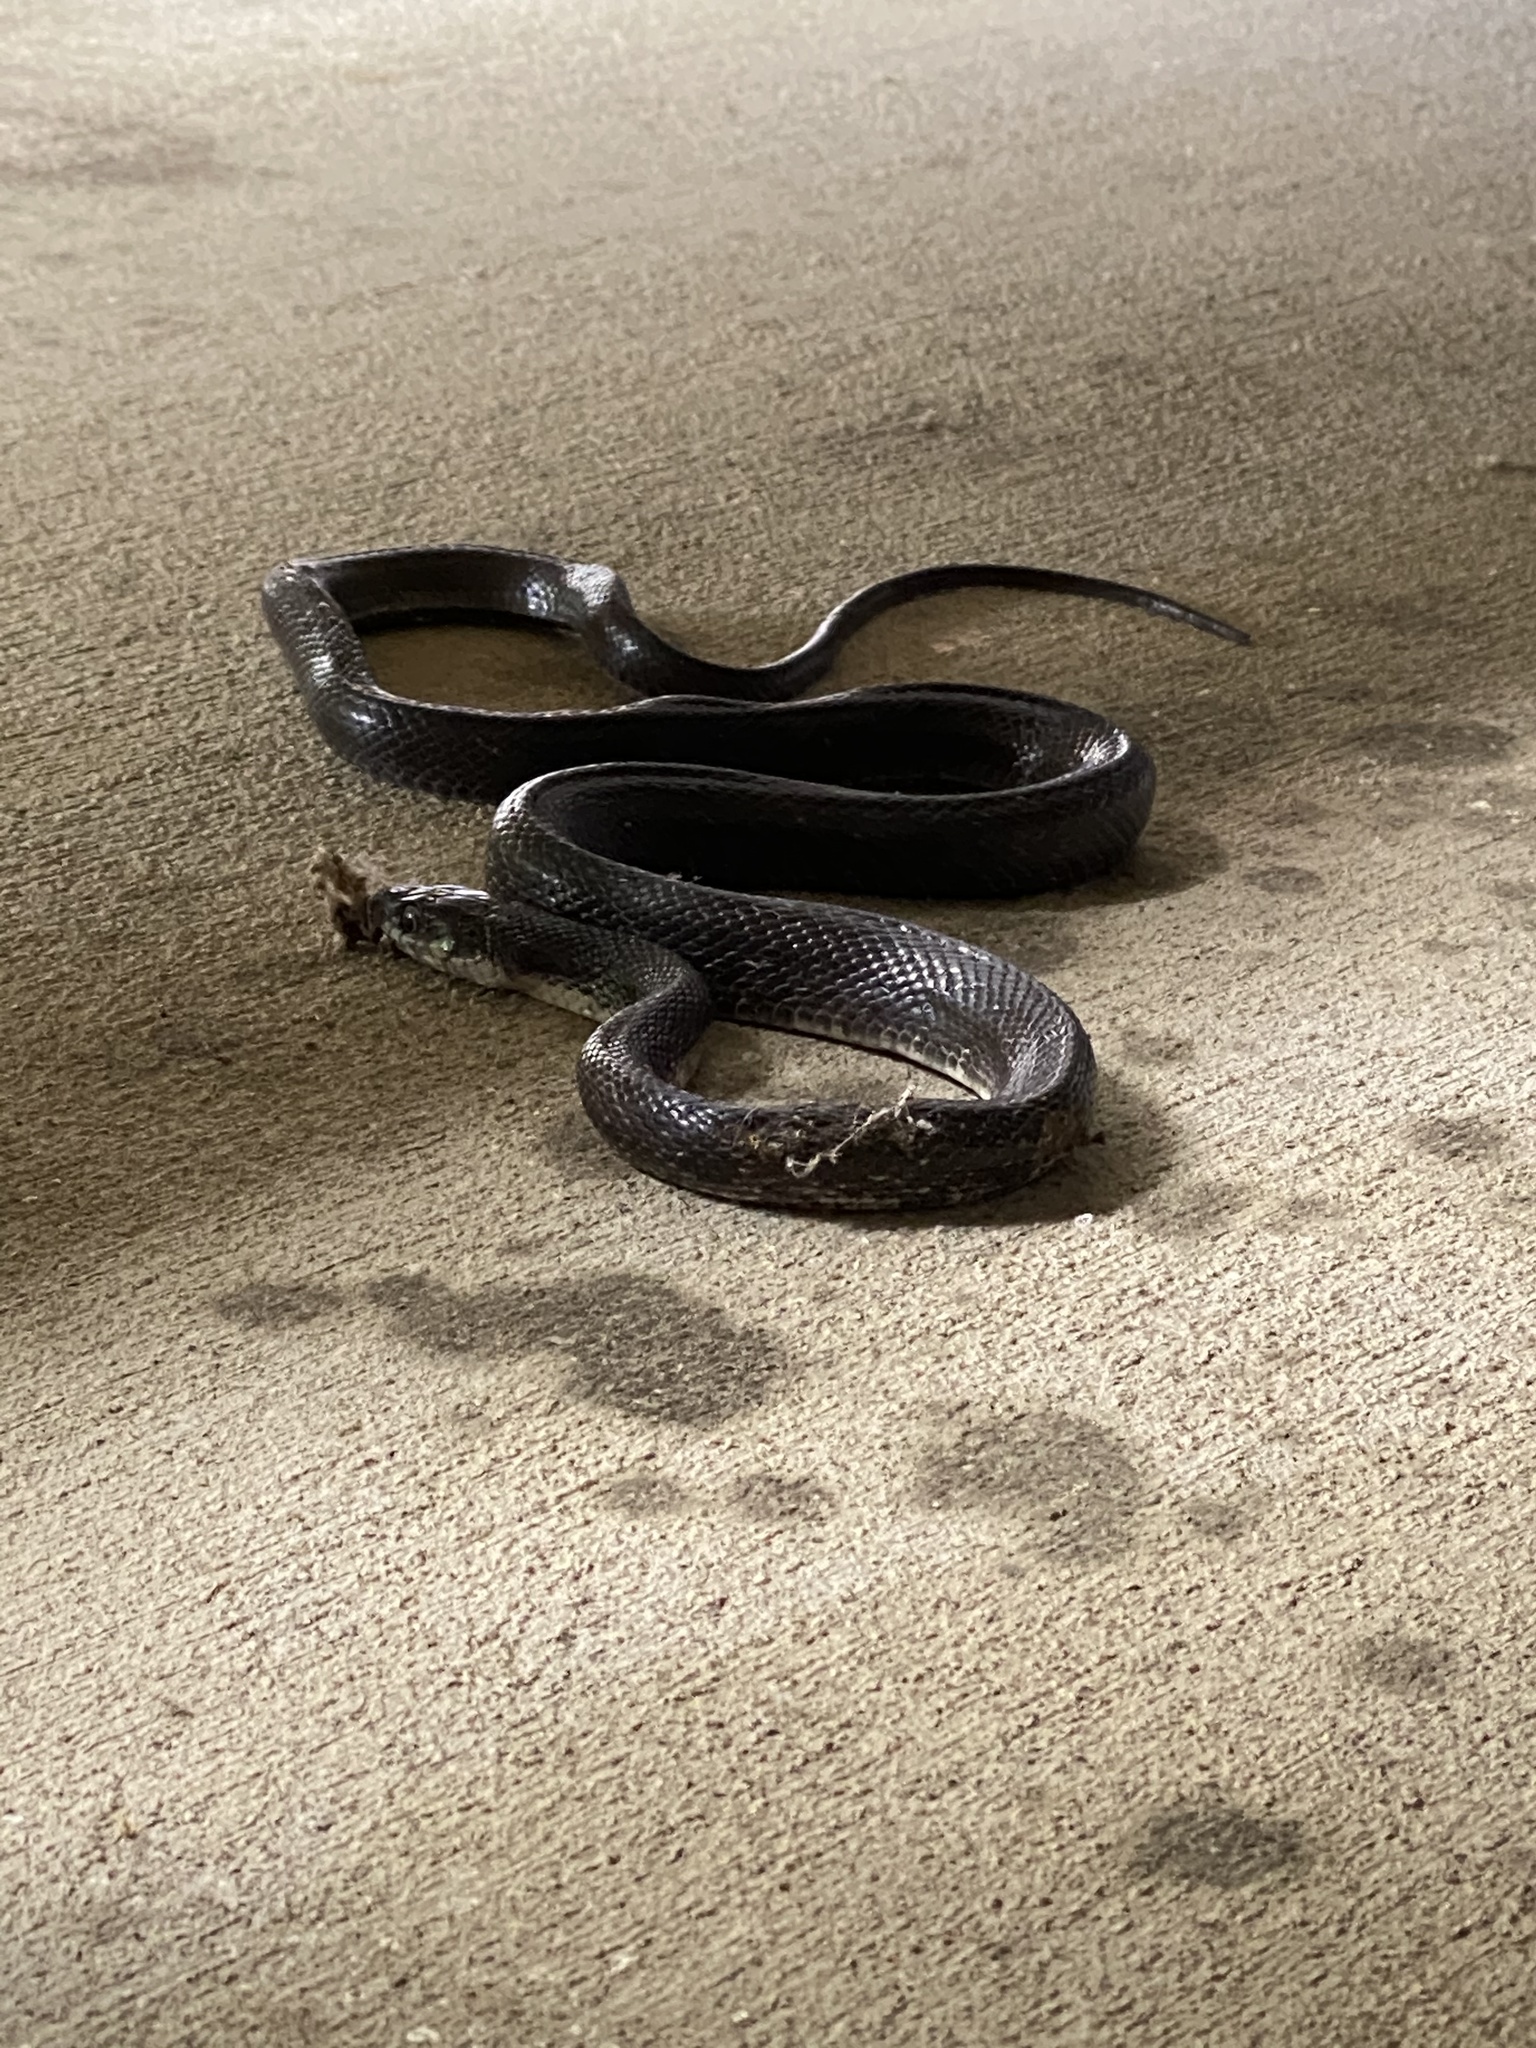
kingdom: Animalia
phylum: Chordata
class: Squamata
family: Colubridae
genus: Pantherophis
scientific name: Pantherophis alleghaniensis
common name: Eastern rat snake
